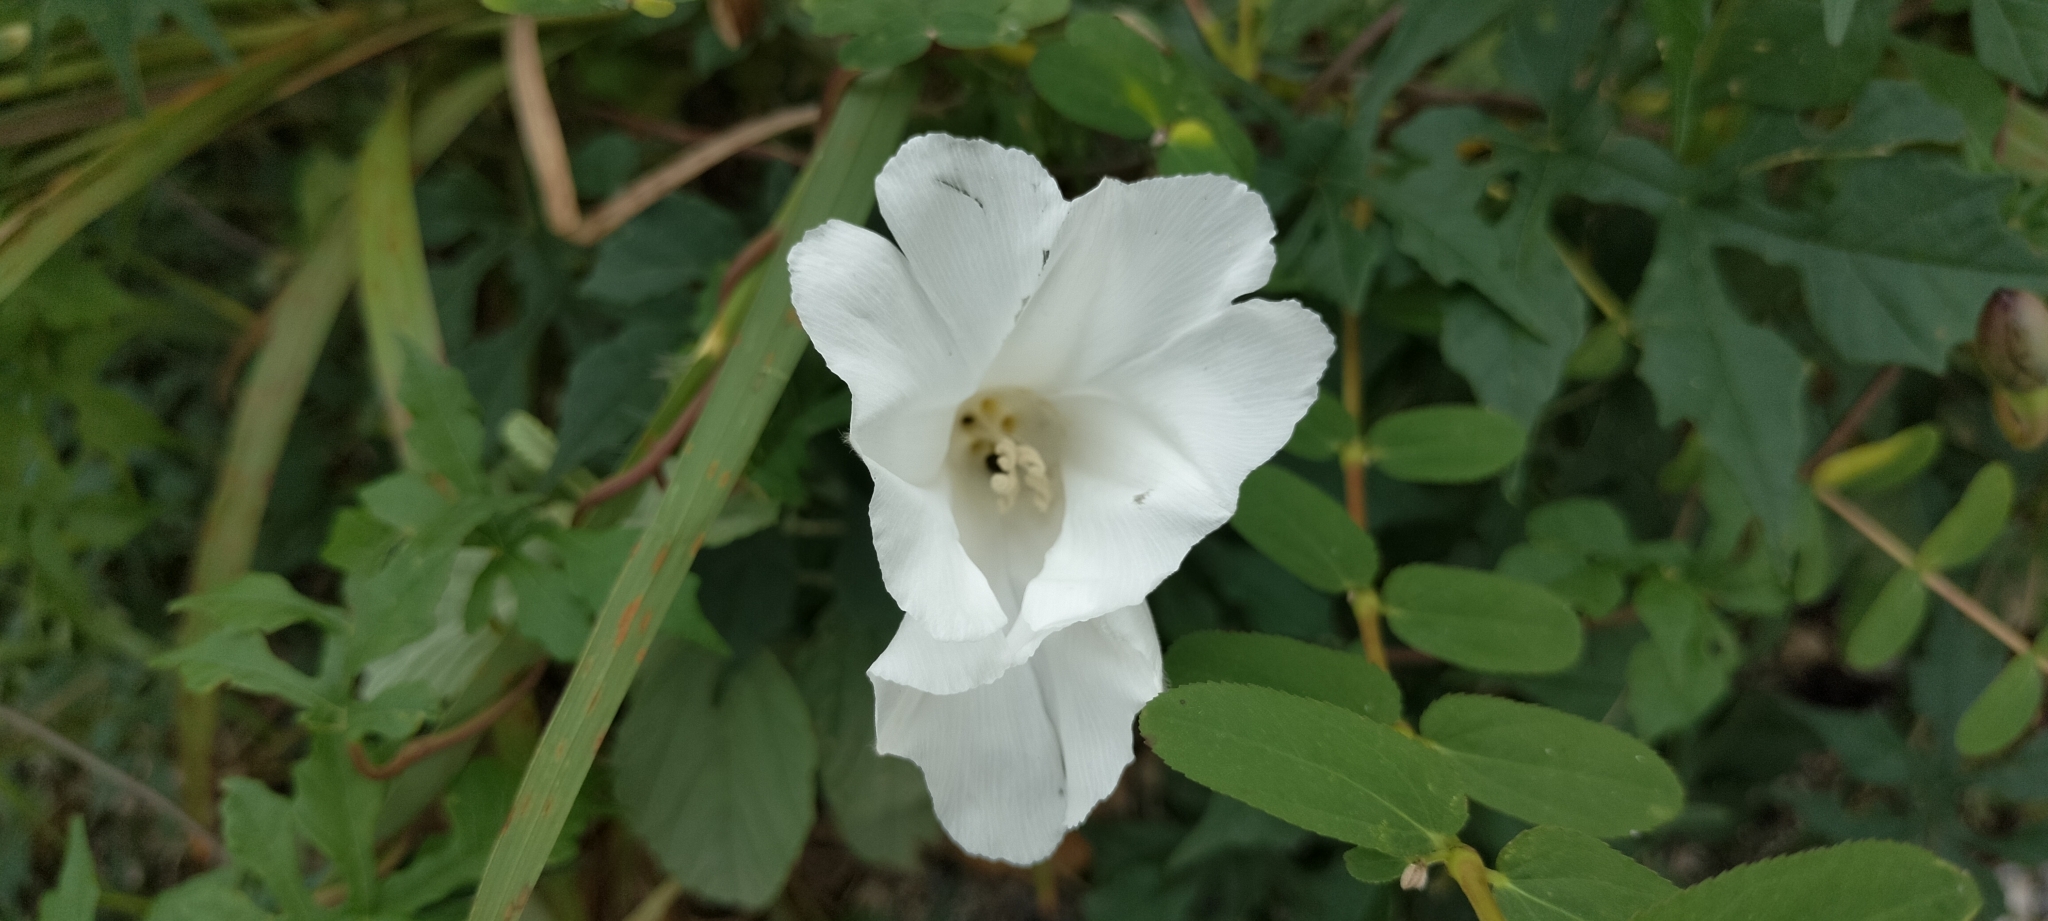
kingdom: Plantae
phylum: Tracheophyta
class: Magnoliopsida
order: Solanales
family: Convolvulaceae
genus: Operculina
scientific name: Operculina pinnatifida
